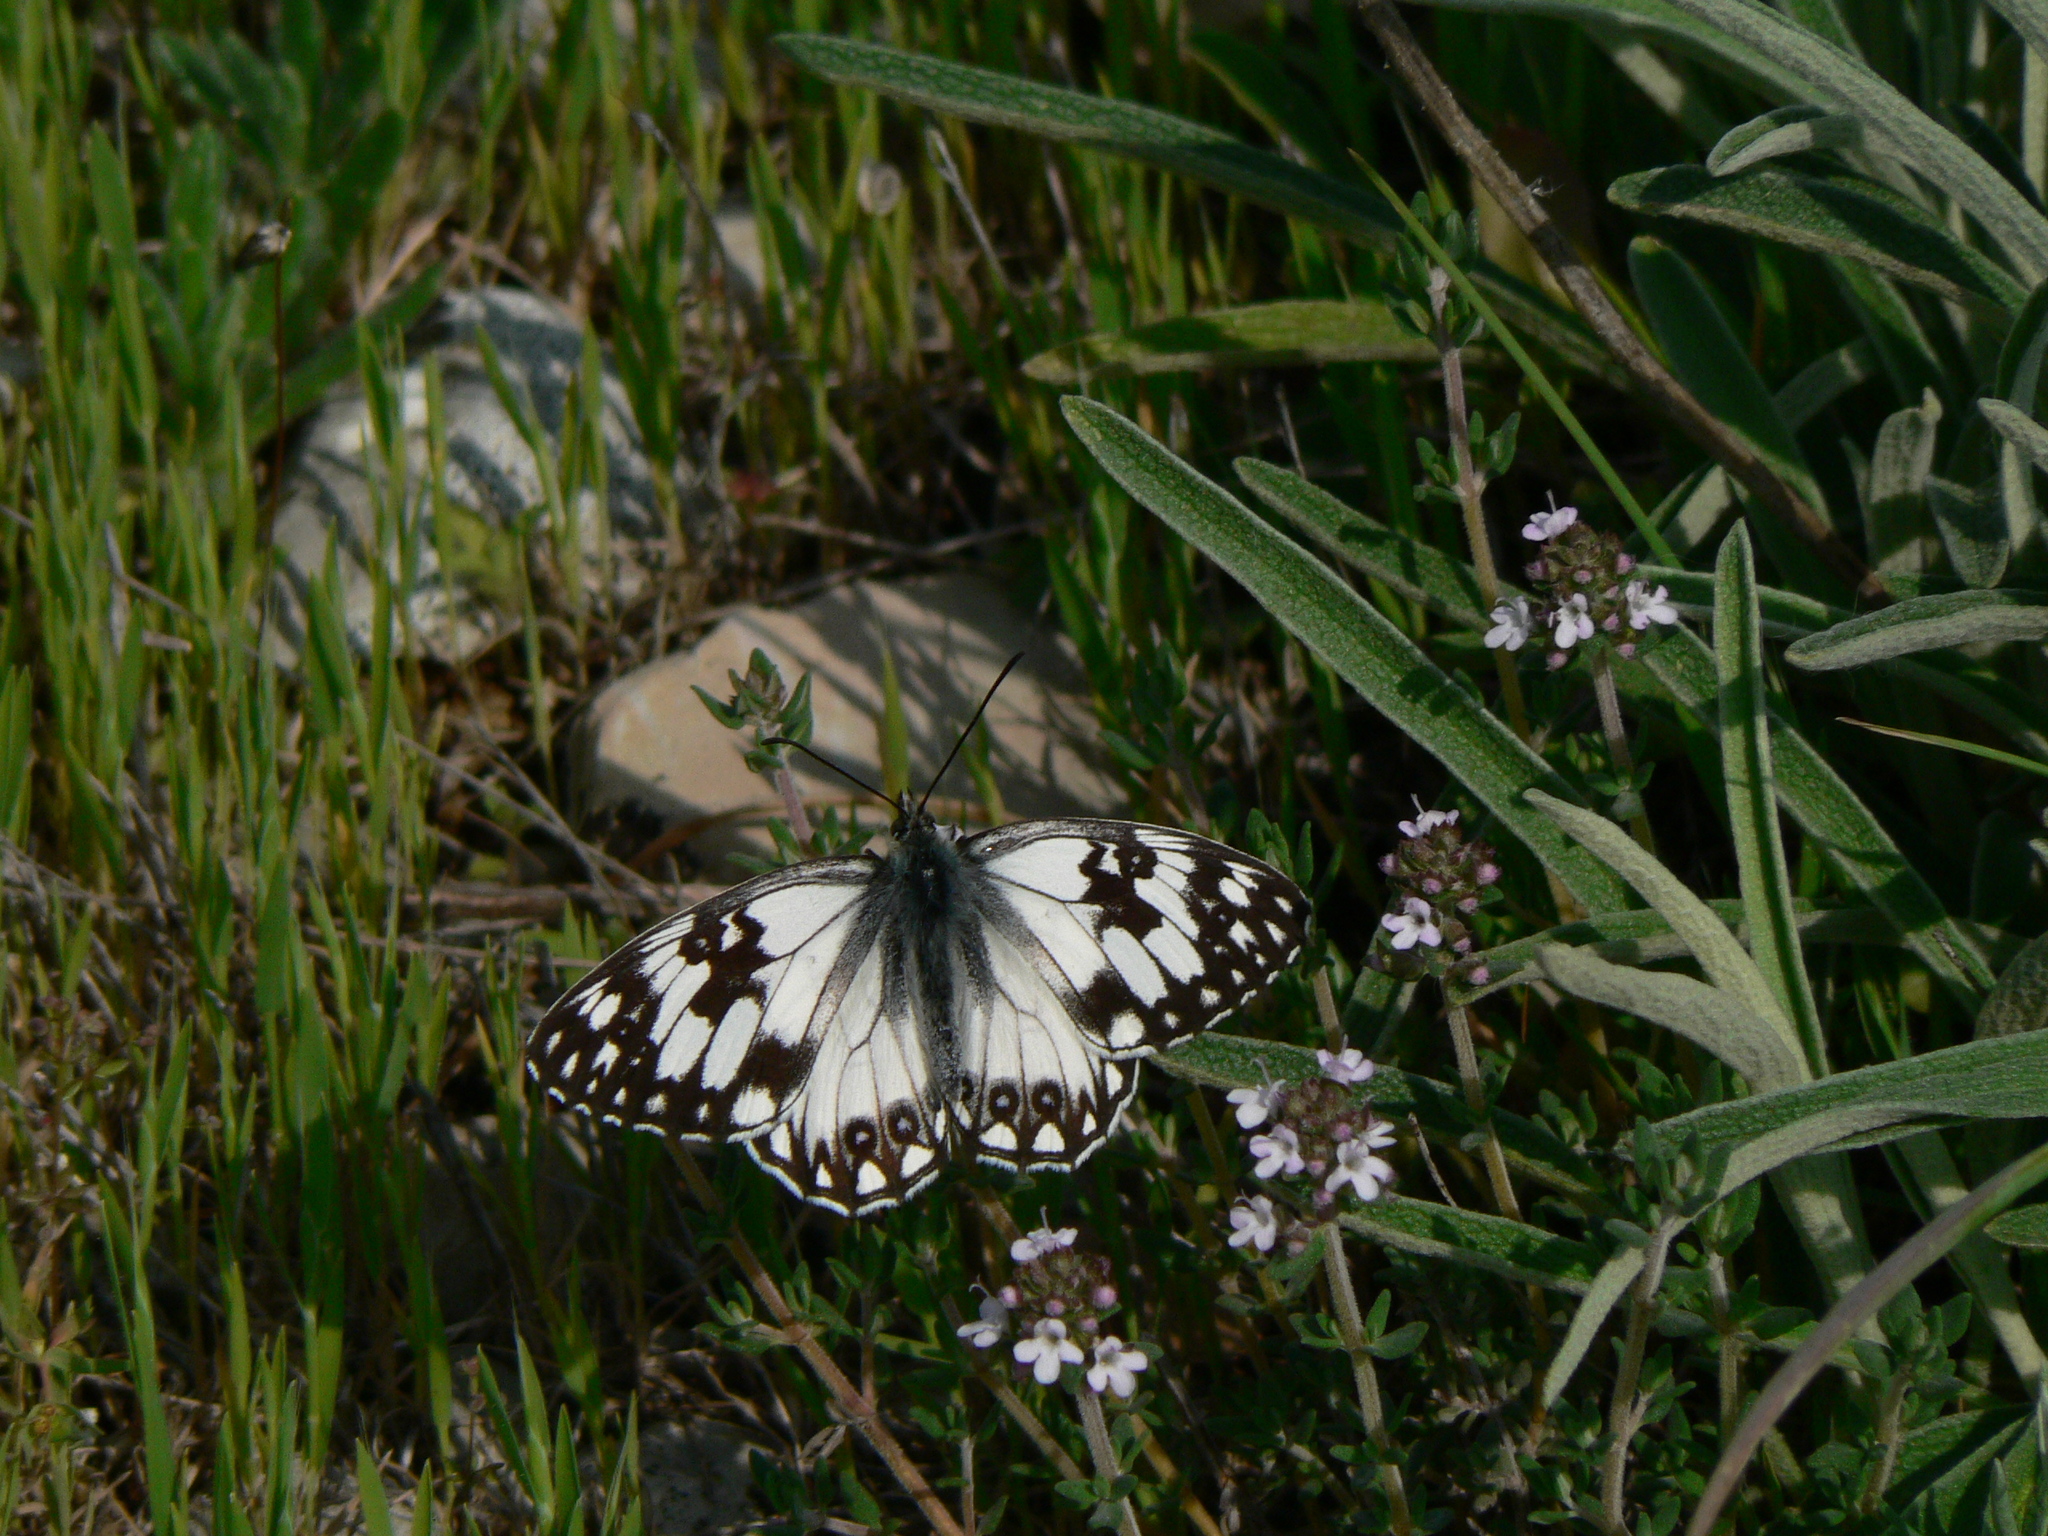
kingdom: Animalia
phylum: Arthropoda
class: Insecta
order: Lepidoptera
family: Nymphalidae
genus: Melanargia
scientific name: Melanargia occitanica
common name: Western marbled white
